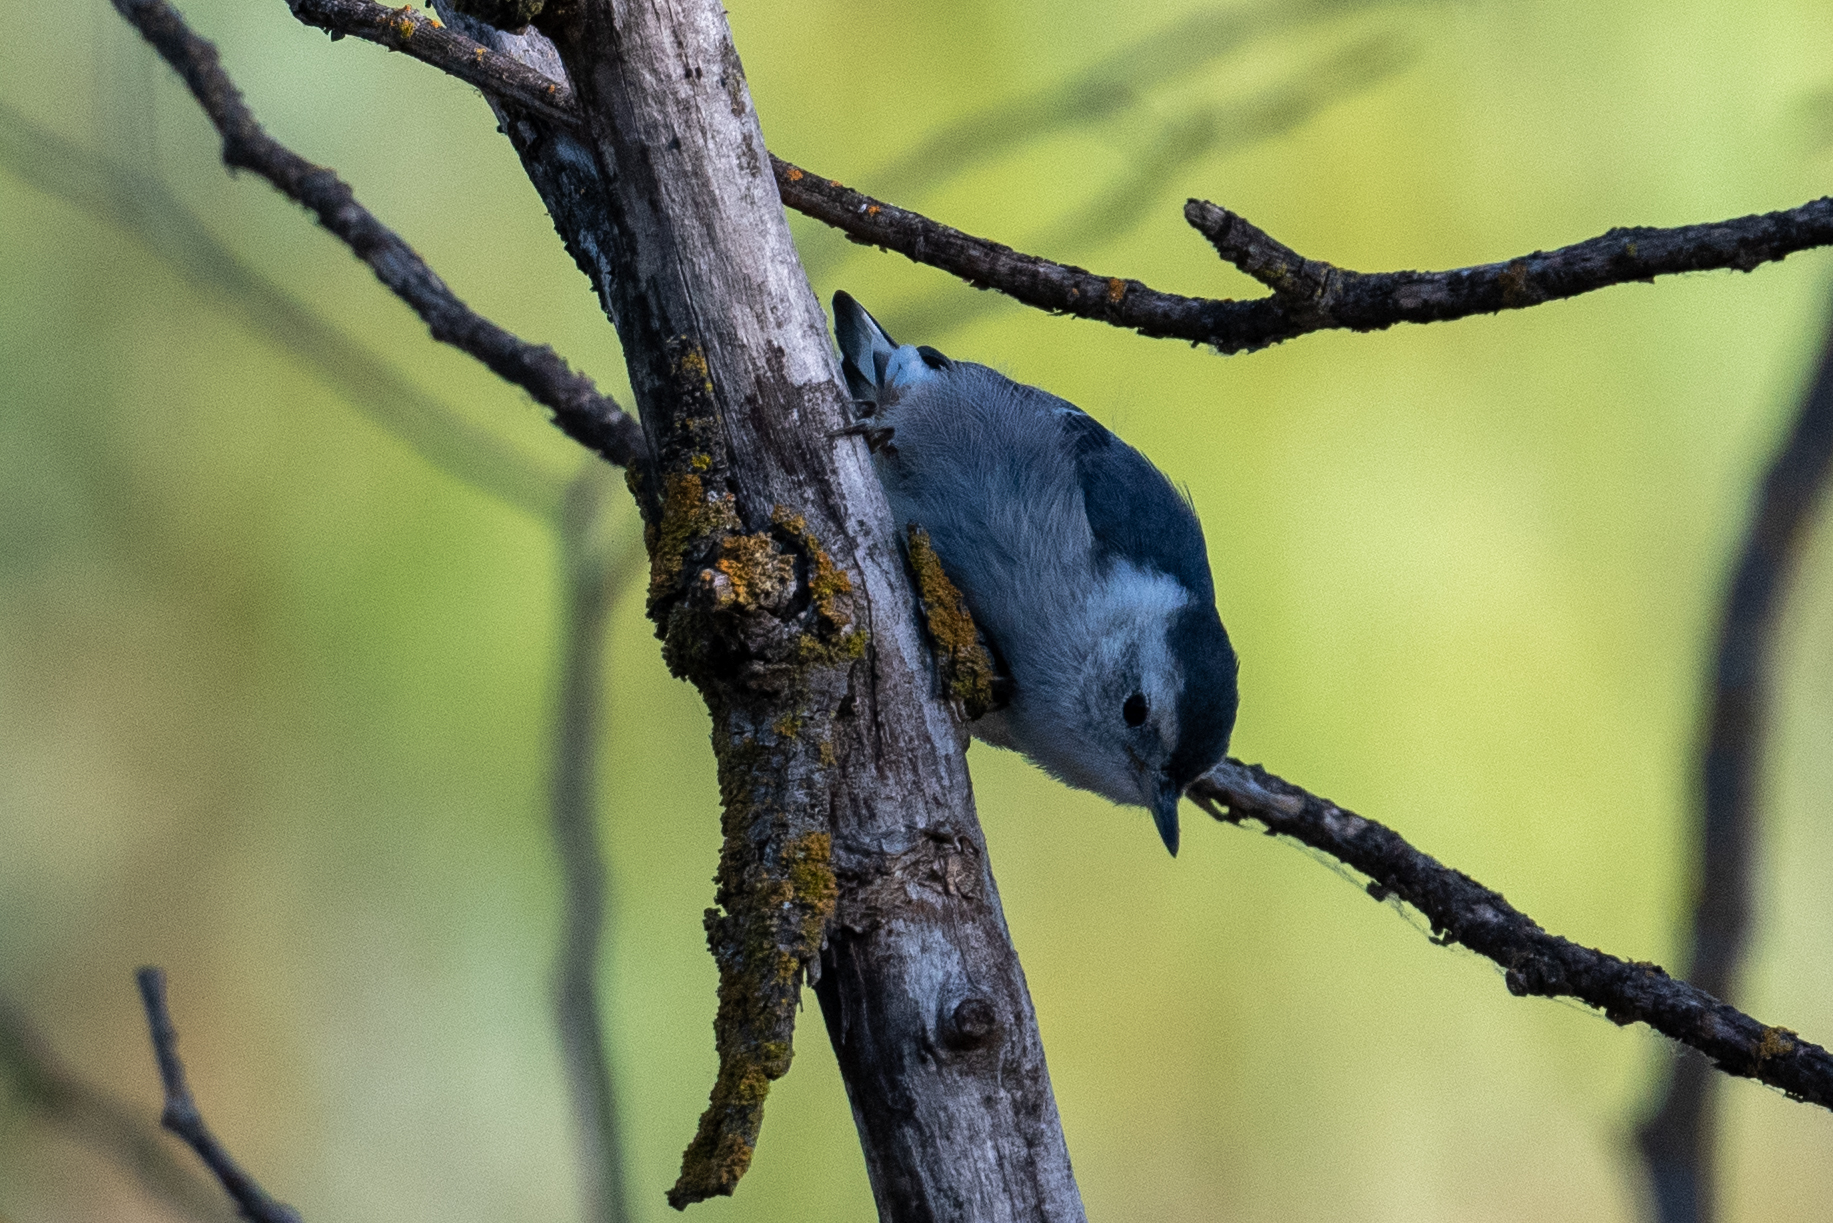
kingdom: Animalia
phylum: Chordata
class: Aves
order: Passeriformes
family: Sittidae
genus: Sitta
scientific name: Sitta carolinensis
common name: White-breasted nuthatch
